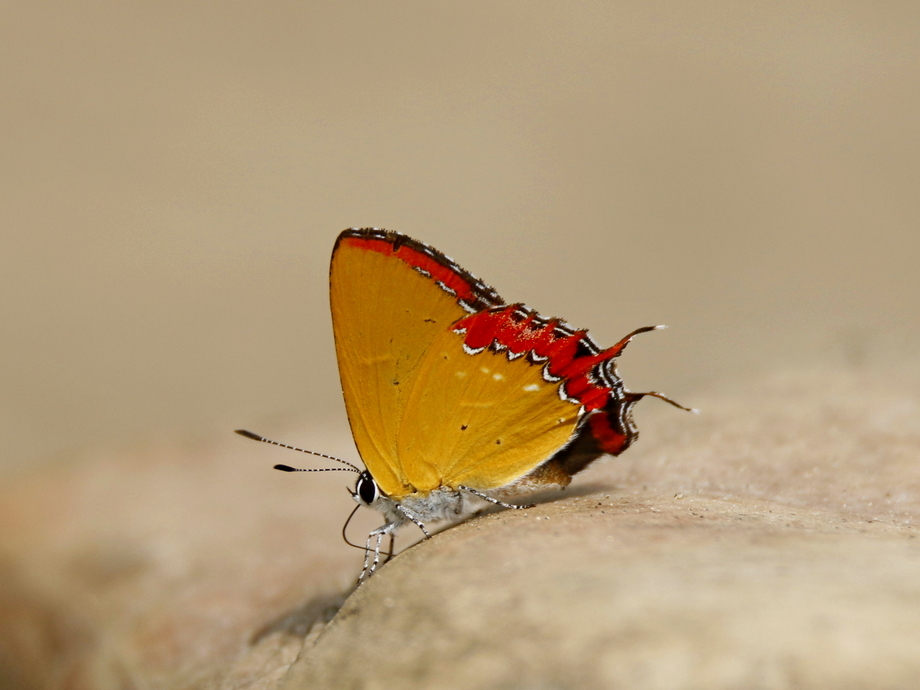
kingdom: Animalia
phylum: Arthropoda
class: Insecta
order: Lepidoptera
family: Lycaenidae
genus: Heliophorus
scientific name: Heliophorus epicles
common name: Purple sapphire
